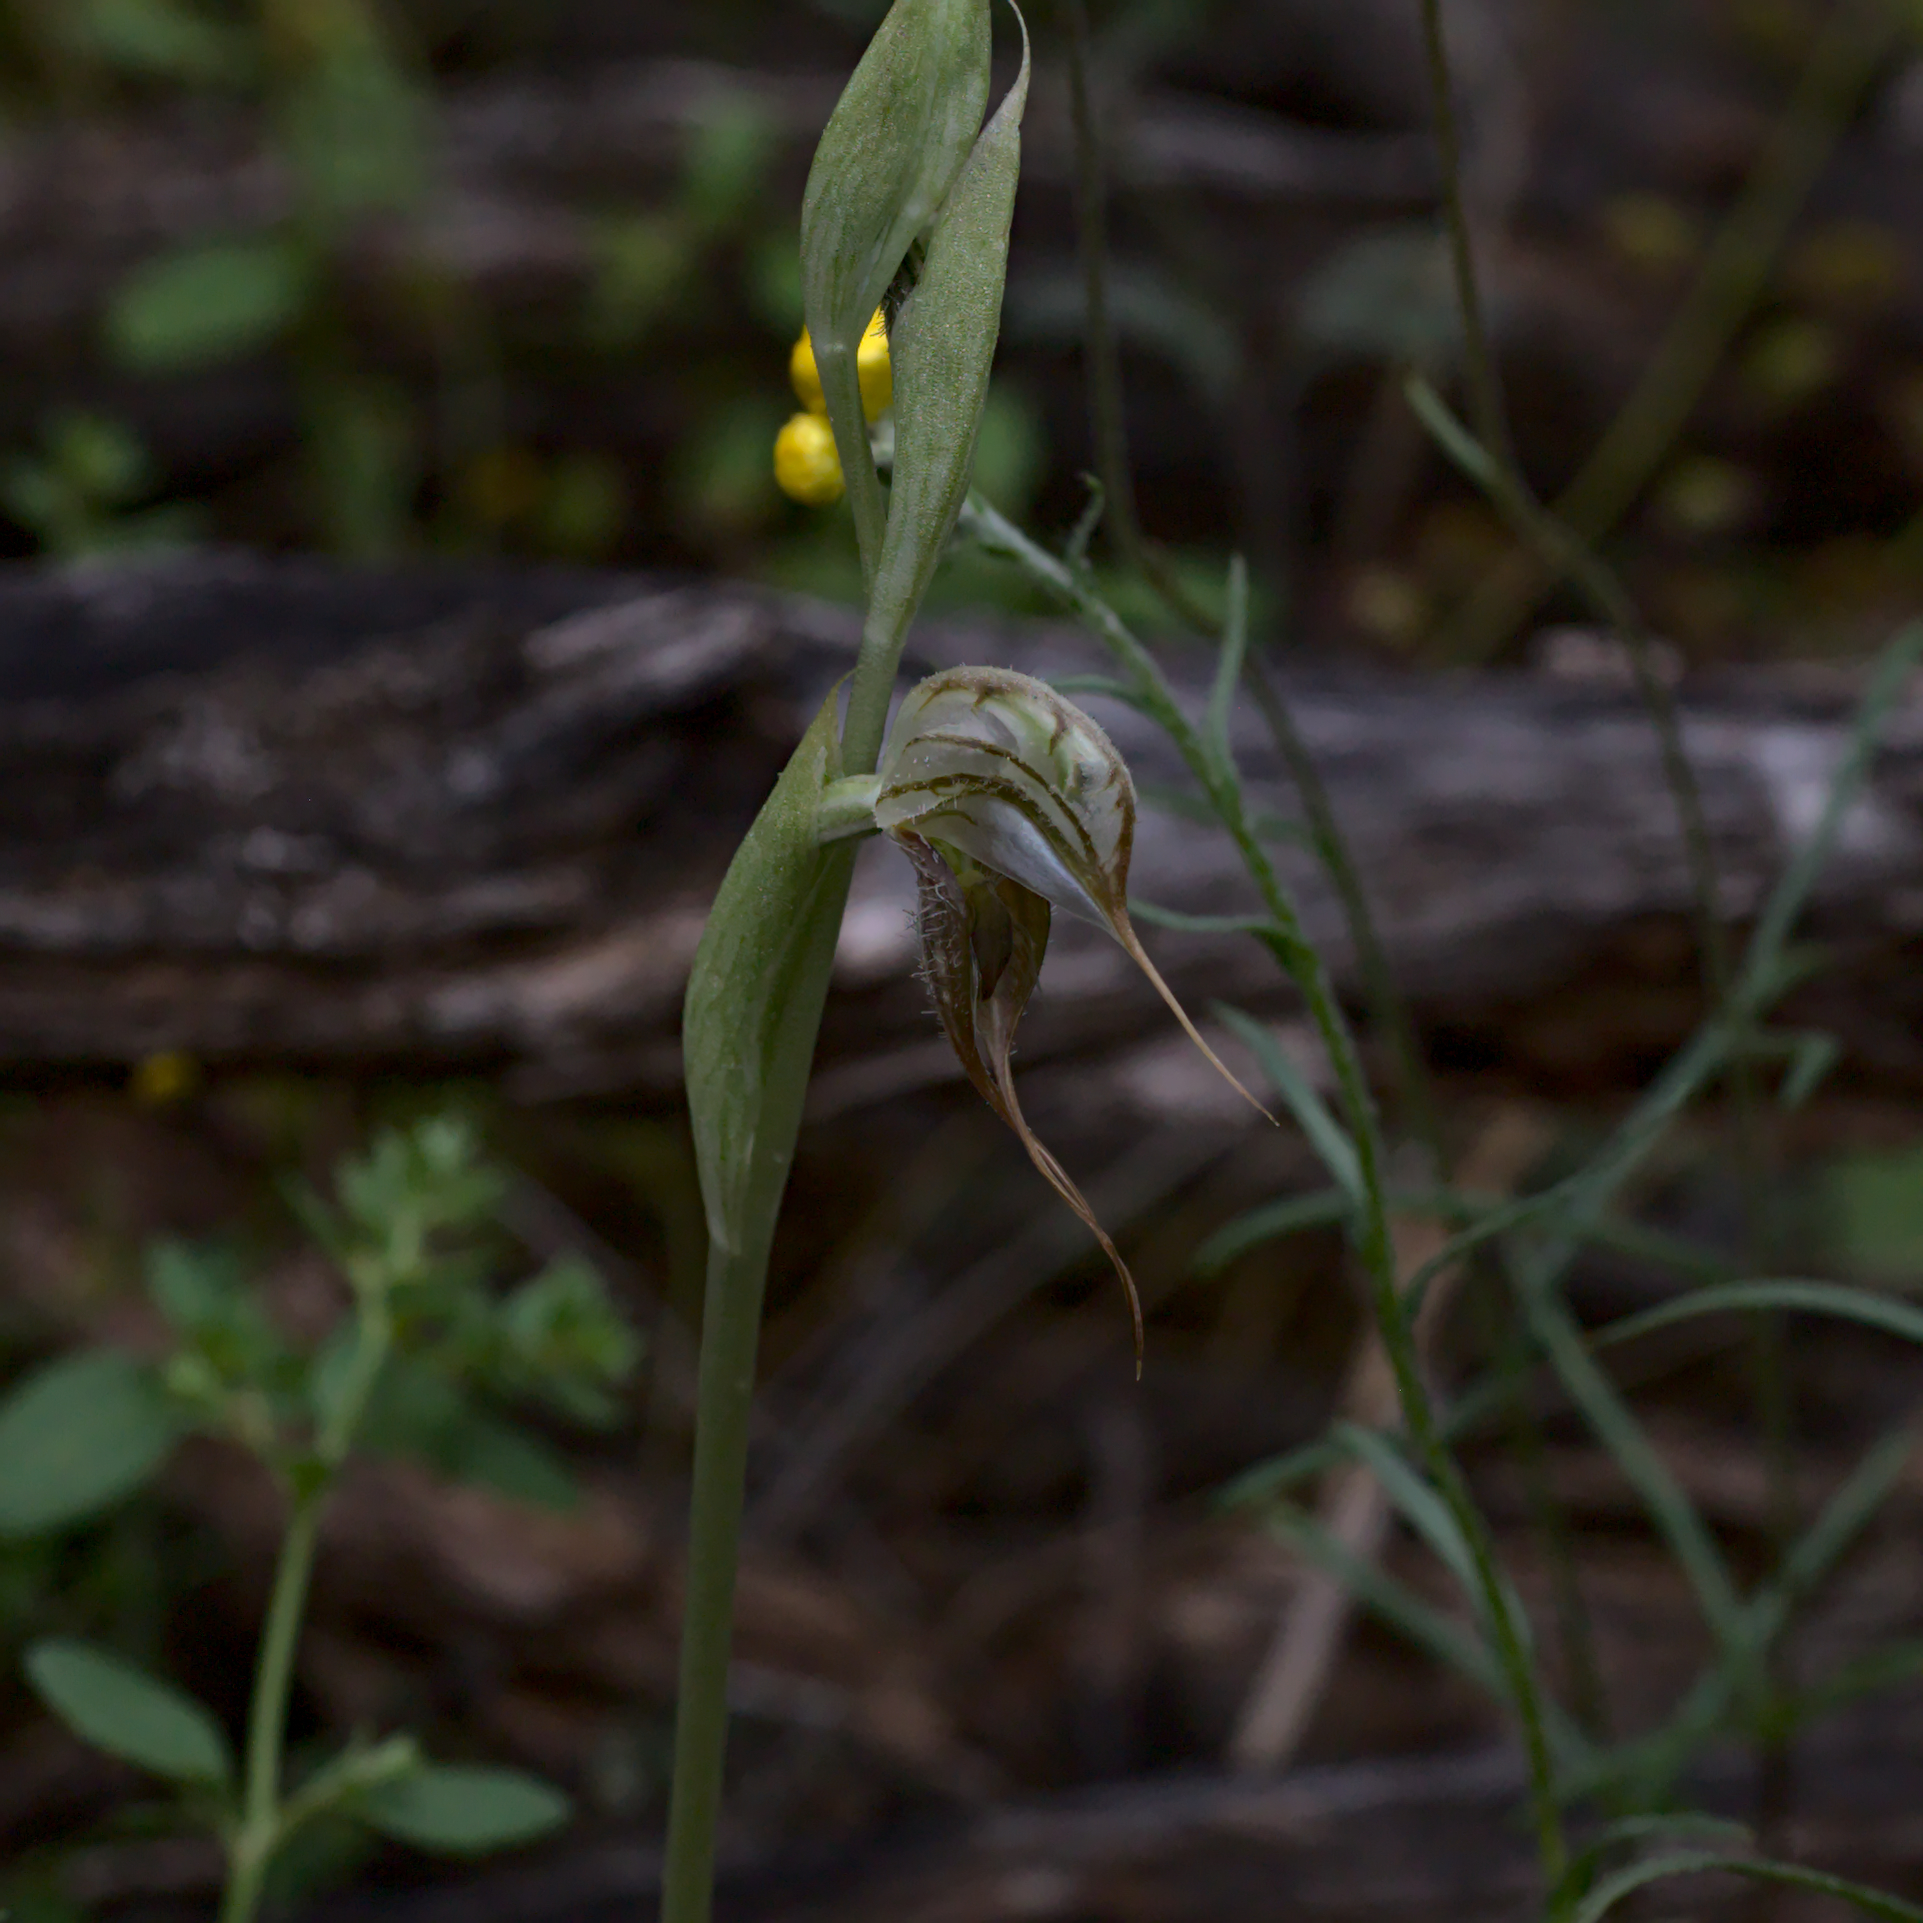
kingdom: Plantae
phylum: Tracheophyta
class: Liliopsida
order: Asparagales
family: Orchidaceae
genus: Pterostylis
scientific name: Pterostylis spathulata
